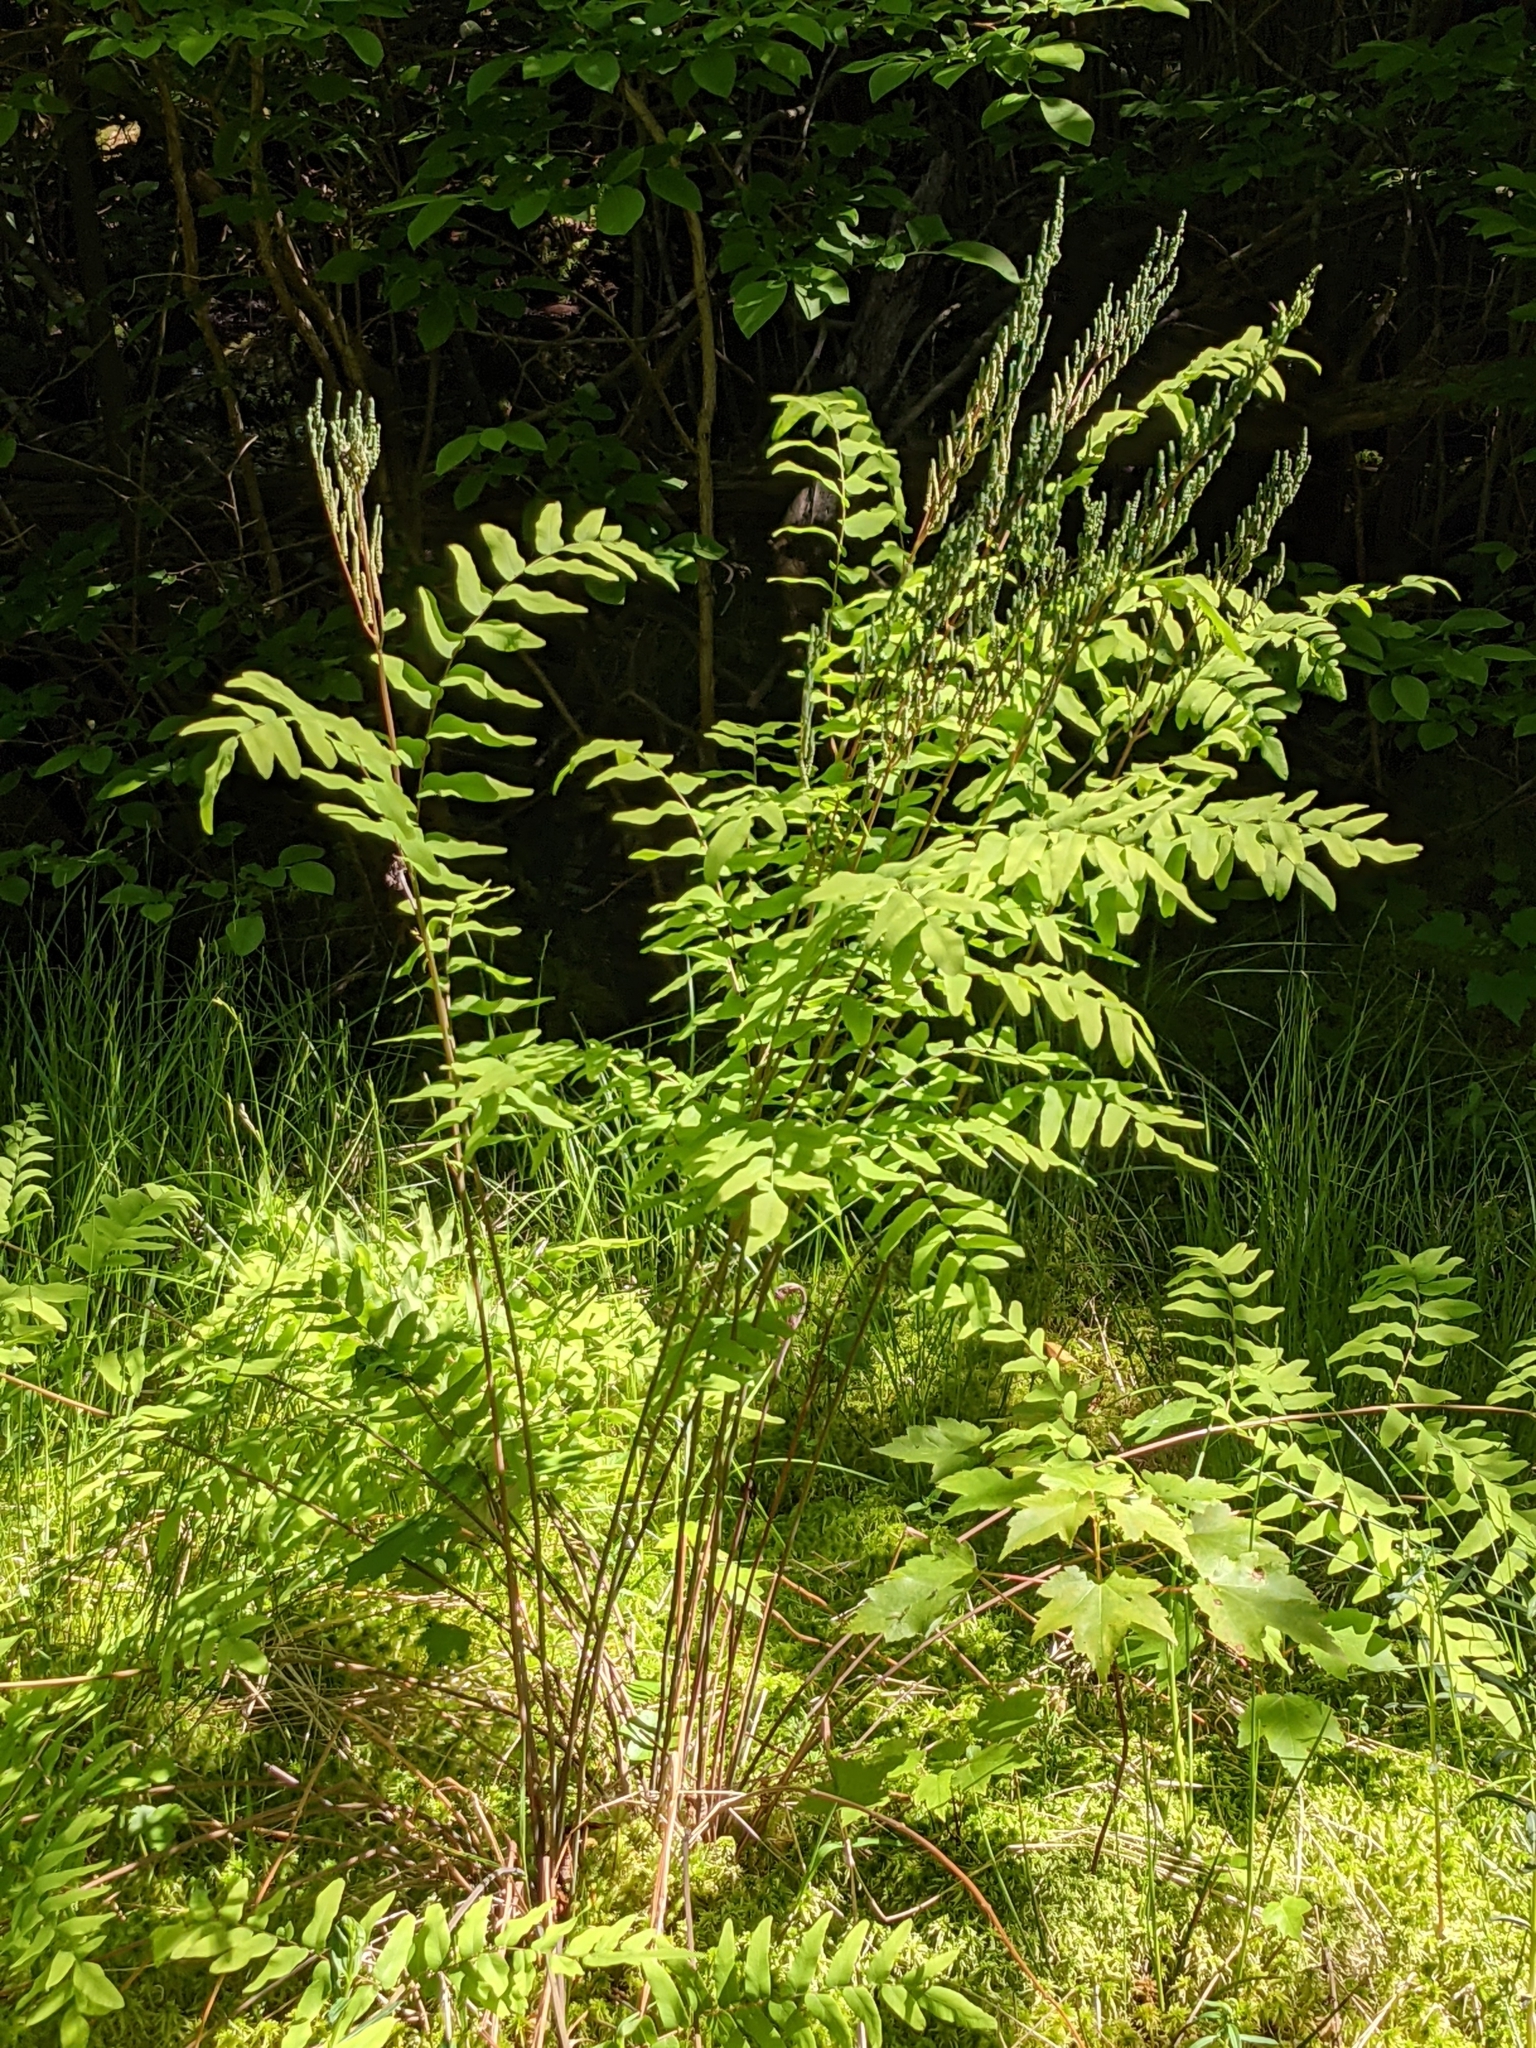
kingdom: Plantae
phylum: Tracheophyta
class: Polypodiopsida
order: Osmundales
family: Osmundaceae
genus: Osmunda
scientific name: Osmunda spectabilis
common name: American royal fern
